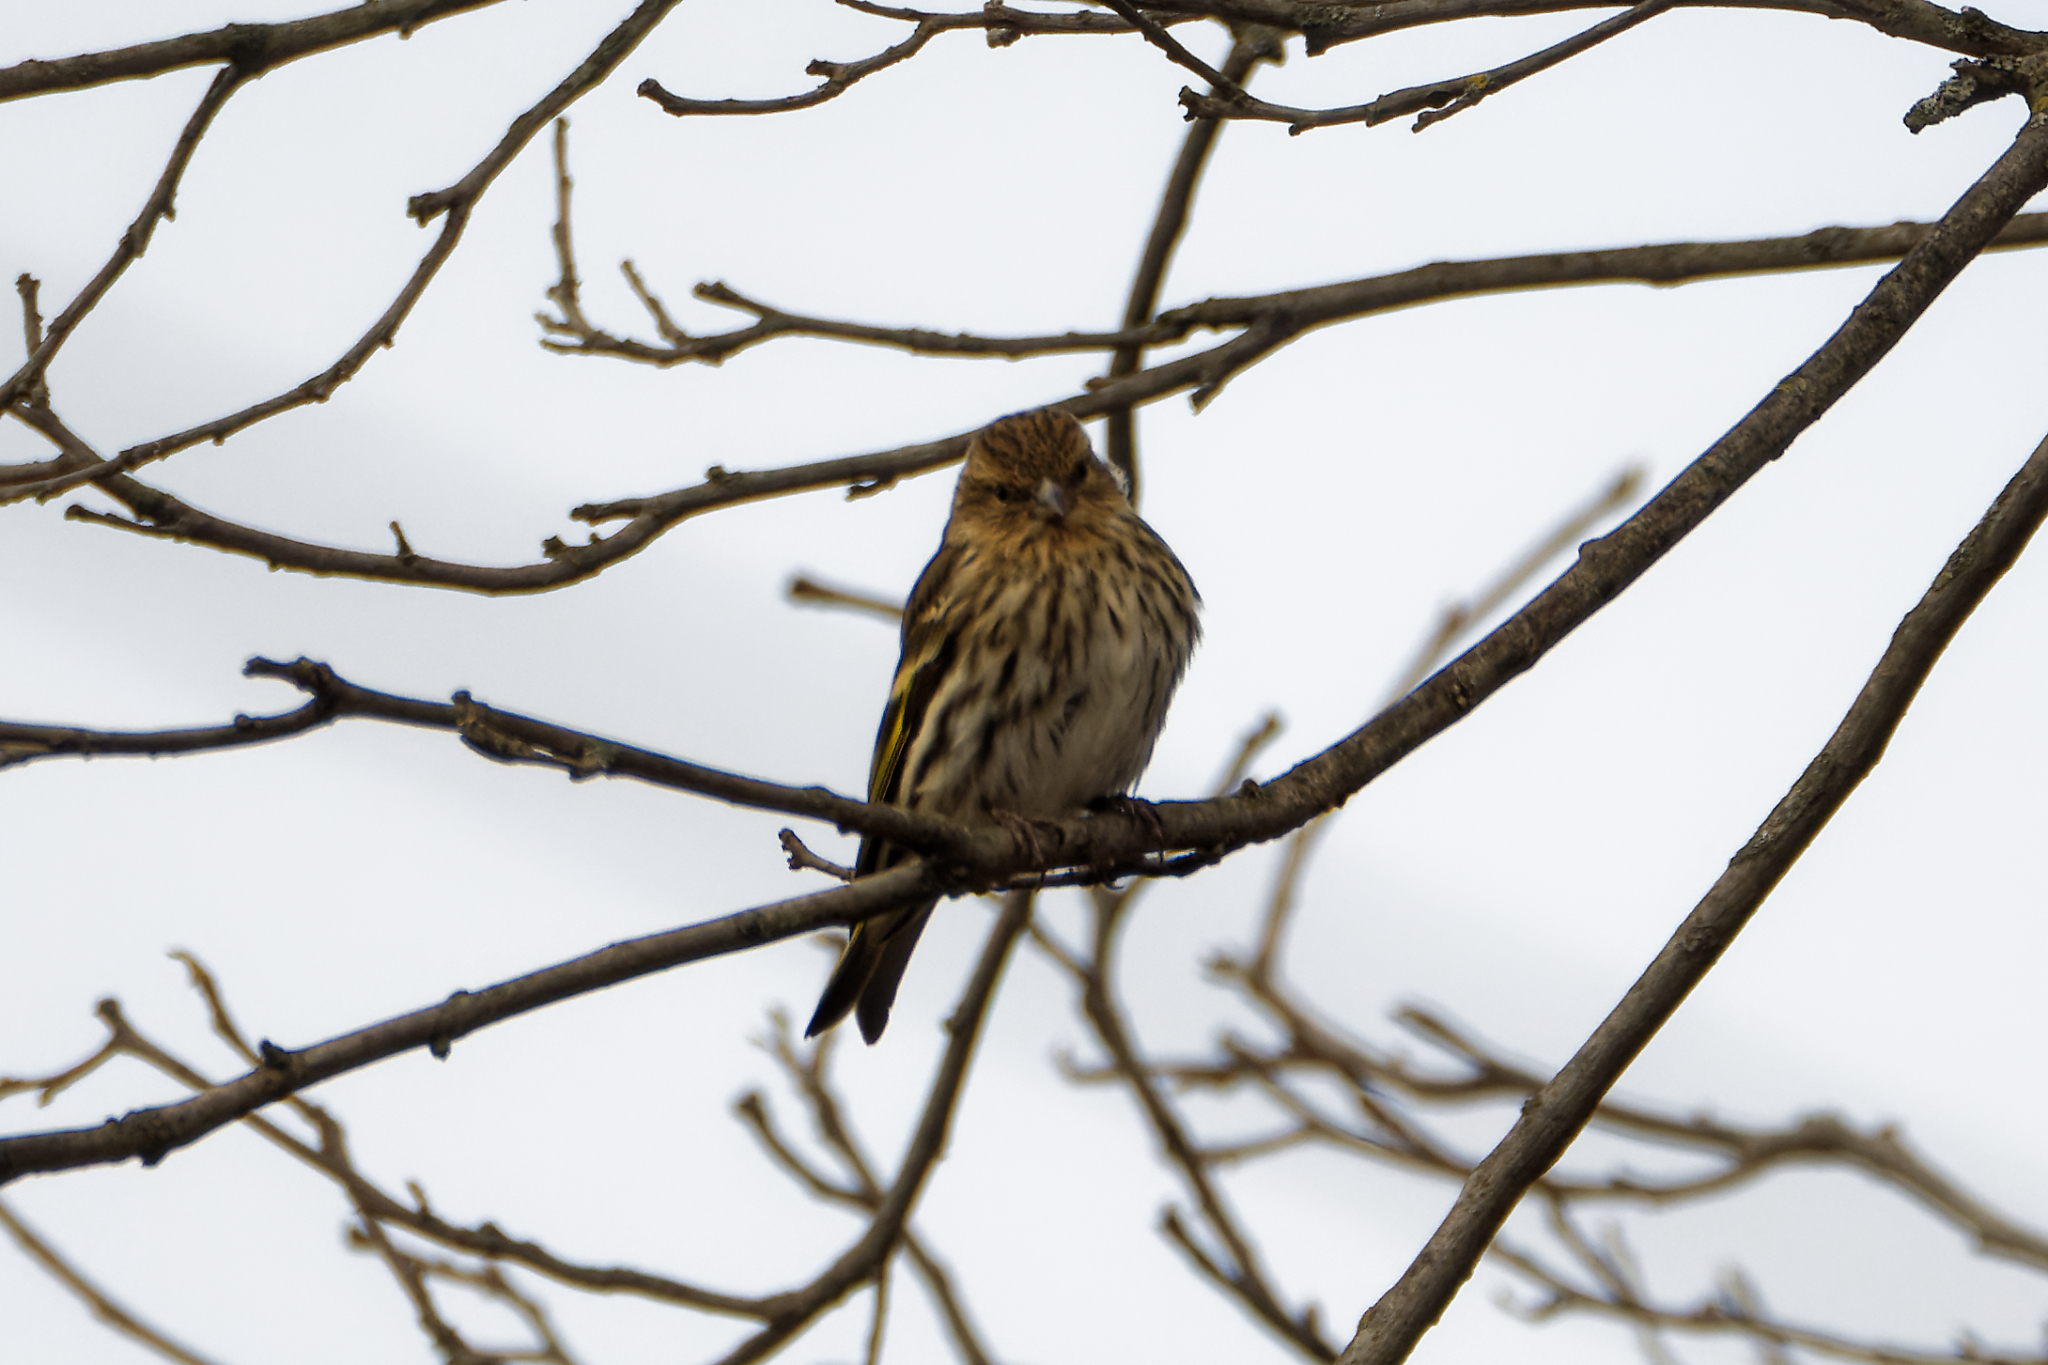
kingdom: Animalia
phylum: Chordata
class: Aves
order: Passeriformes
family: Fringillidae
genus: Spinus
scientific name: Spinus pinus
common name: Pine siskin
